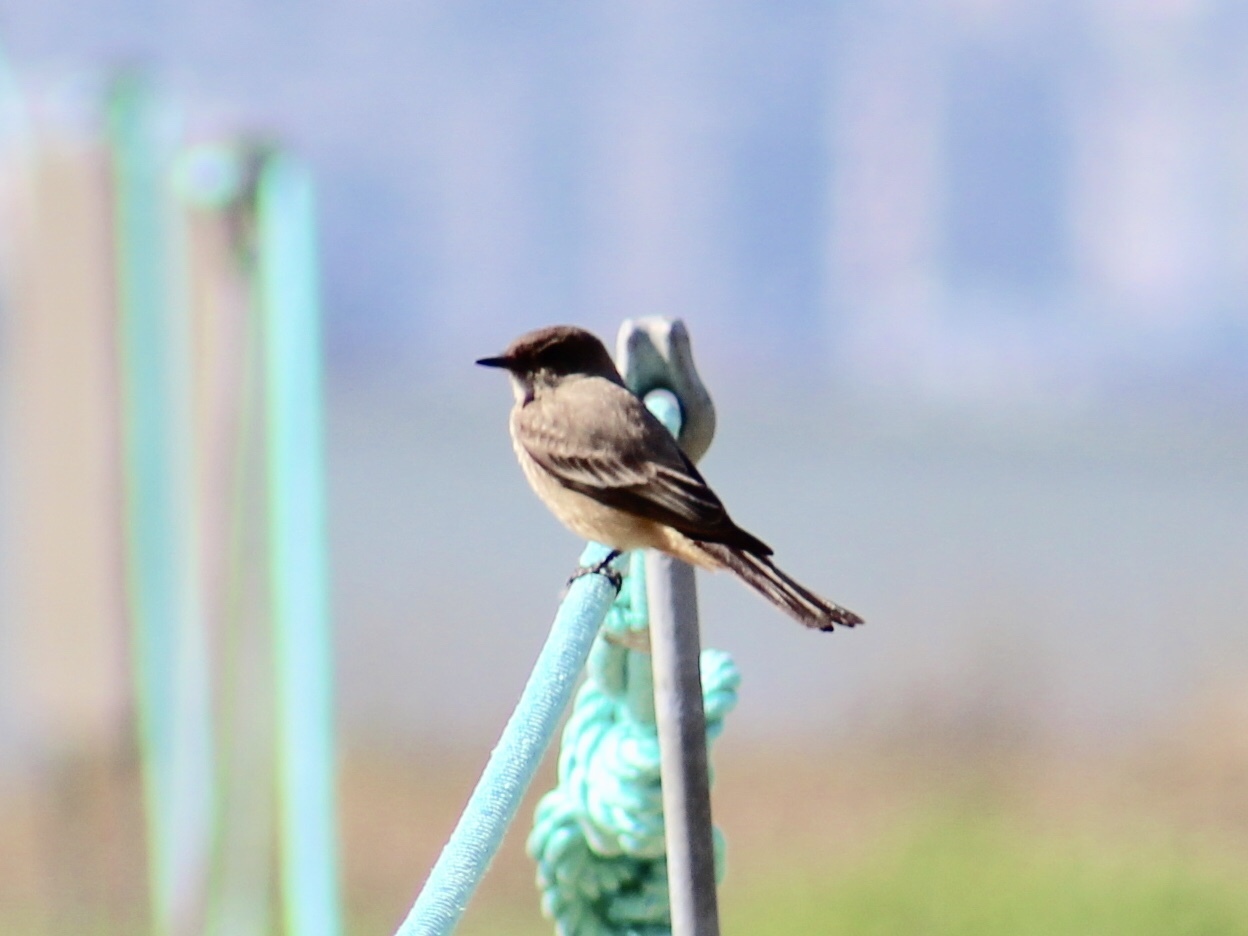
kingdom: Animalia
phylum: Chordata
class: Aves
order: Passeriformes
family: Tyrannidae
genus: Sayornis
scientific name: Sayornis saya
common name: Say's phoebe
